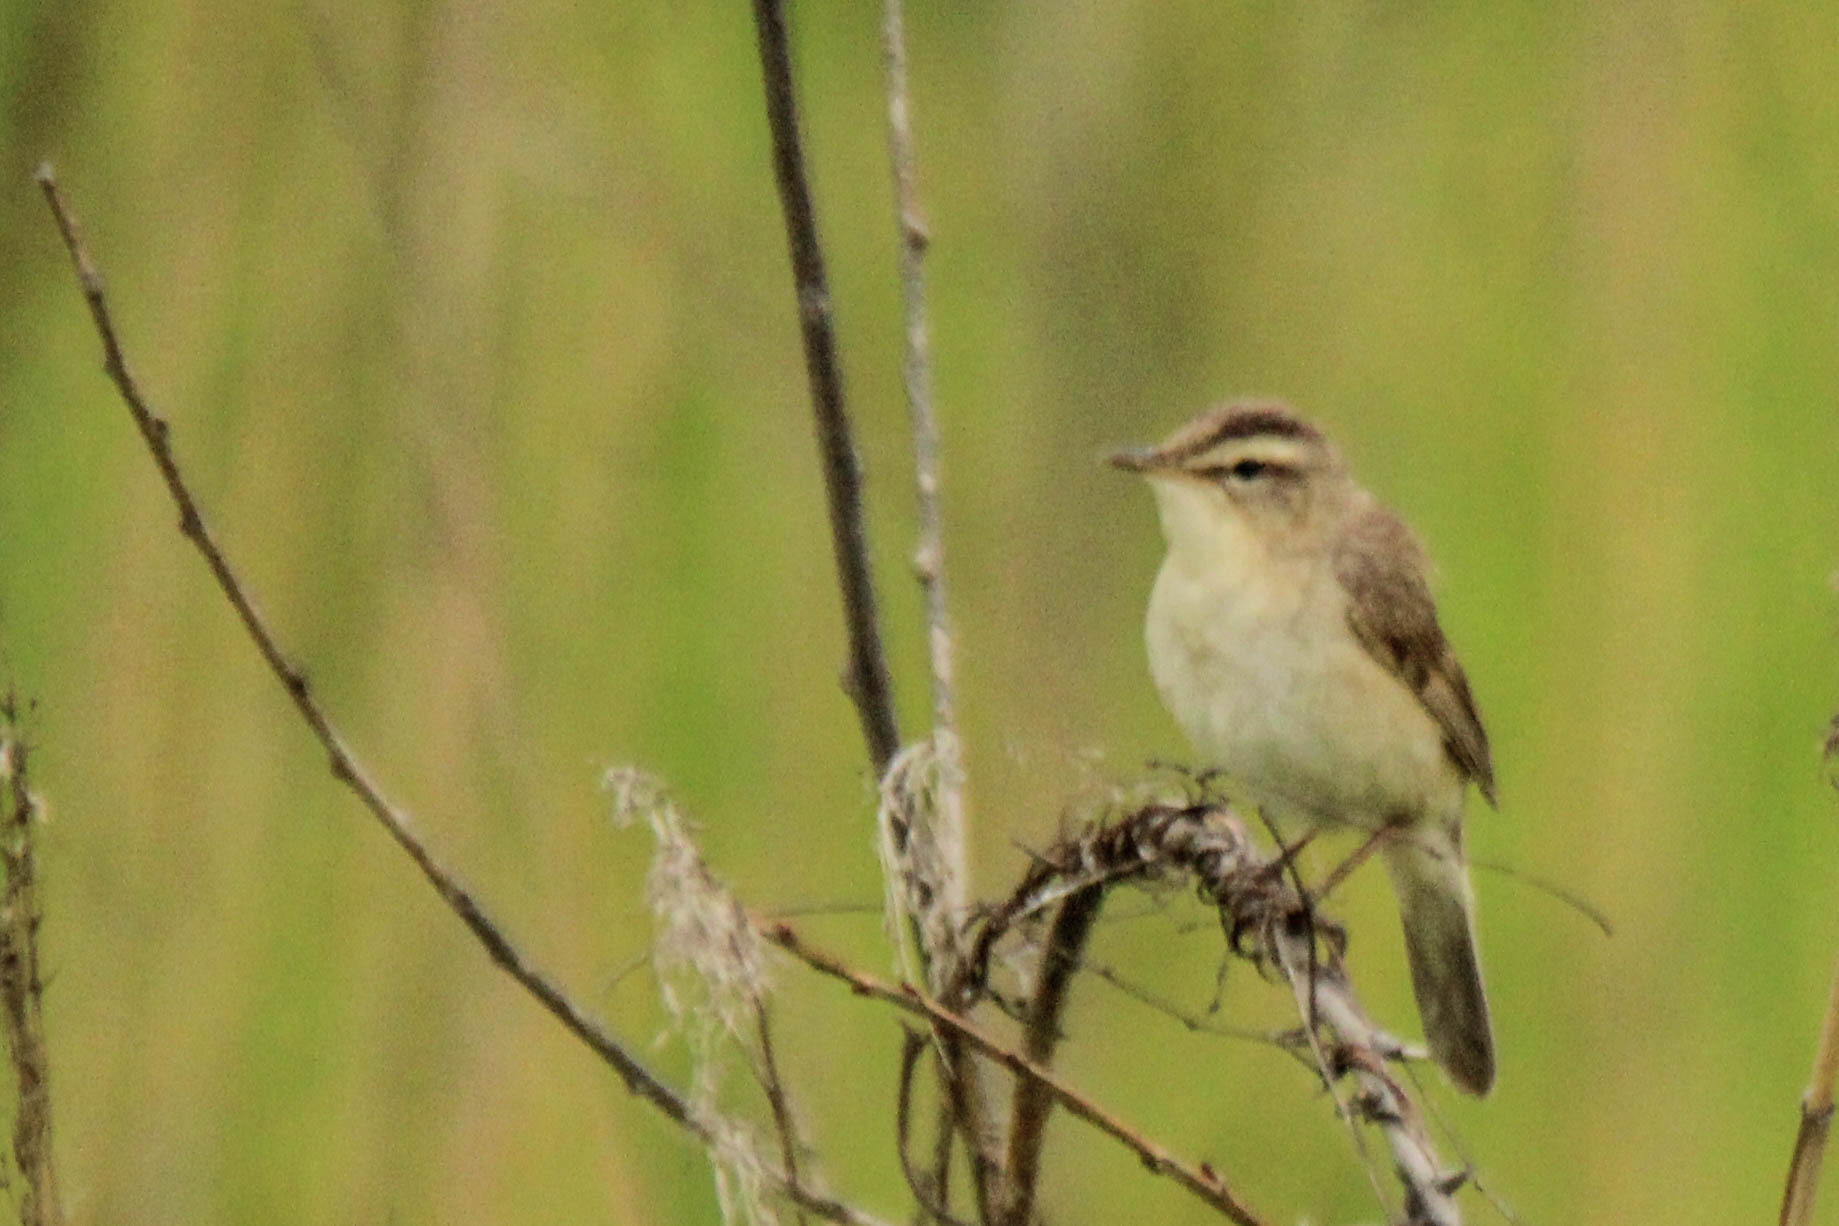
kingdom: Animalia
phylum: Chordata
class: Aves
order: Passeriformes
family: Acrocephalidae
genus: Acrocephalus
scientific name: Acrocephalus bistrigiceps
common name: Black-browed reed warbler
